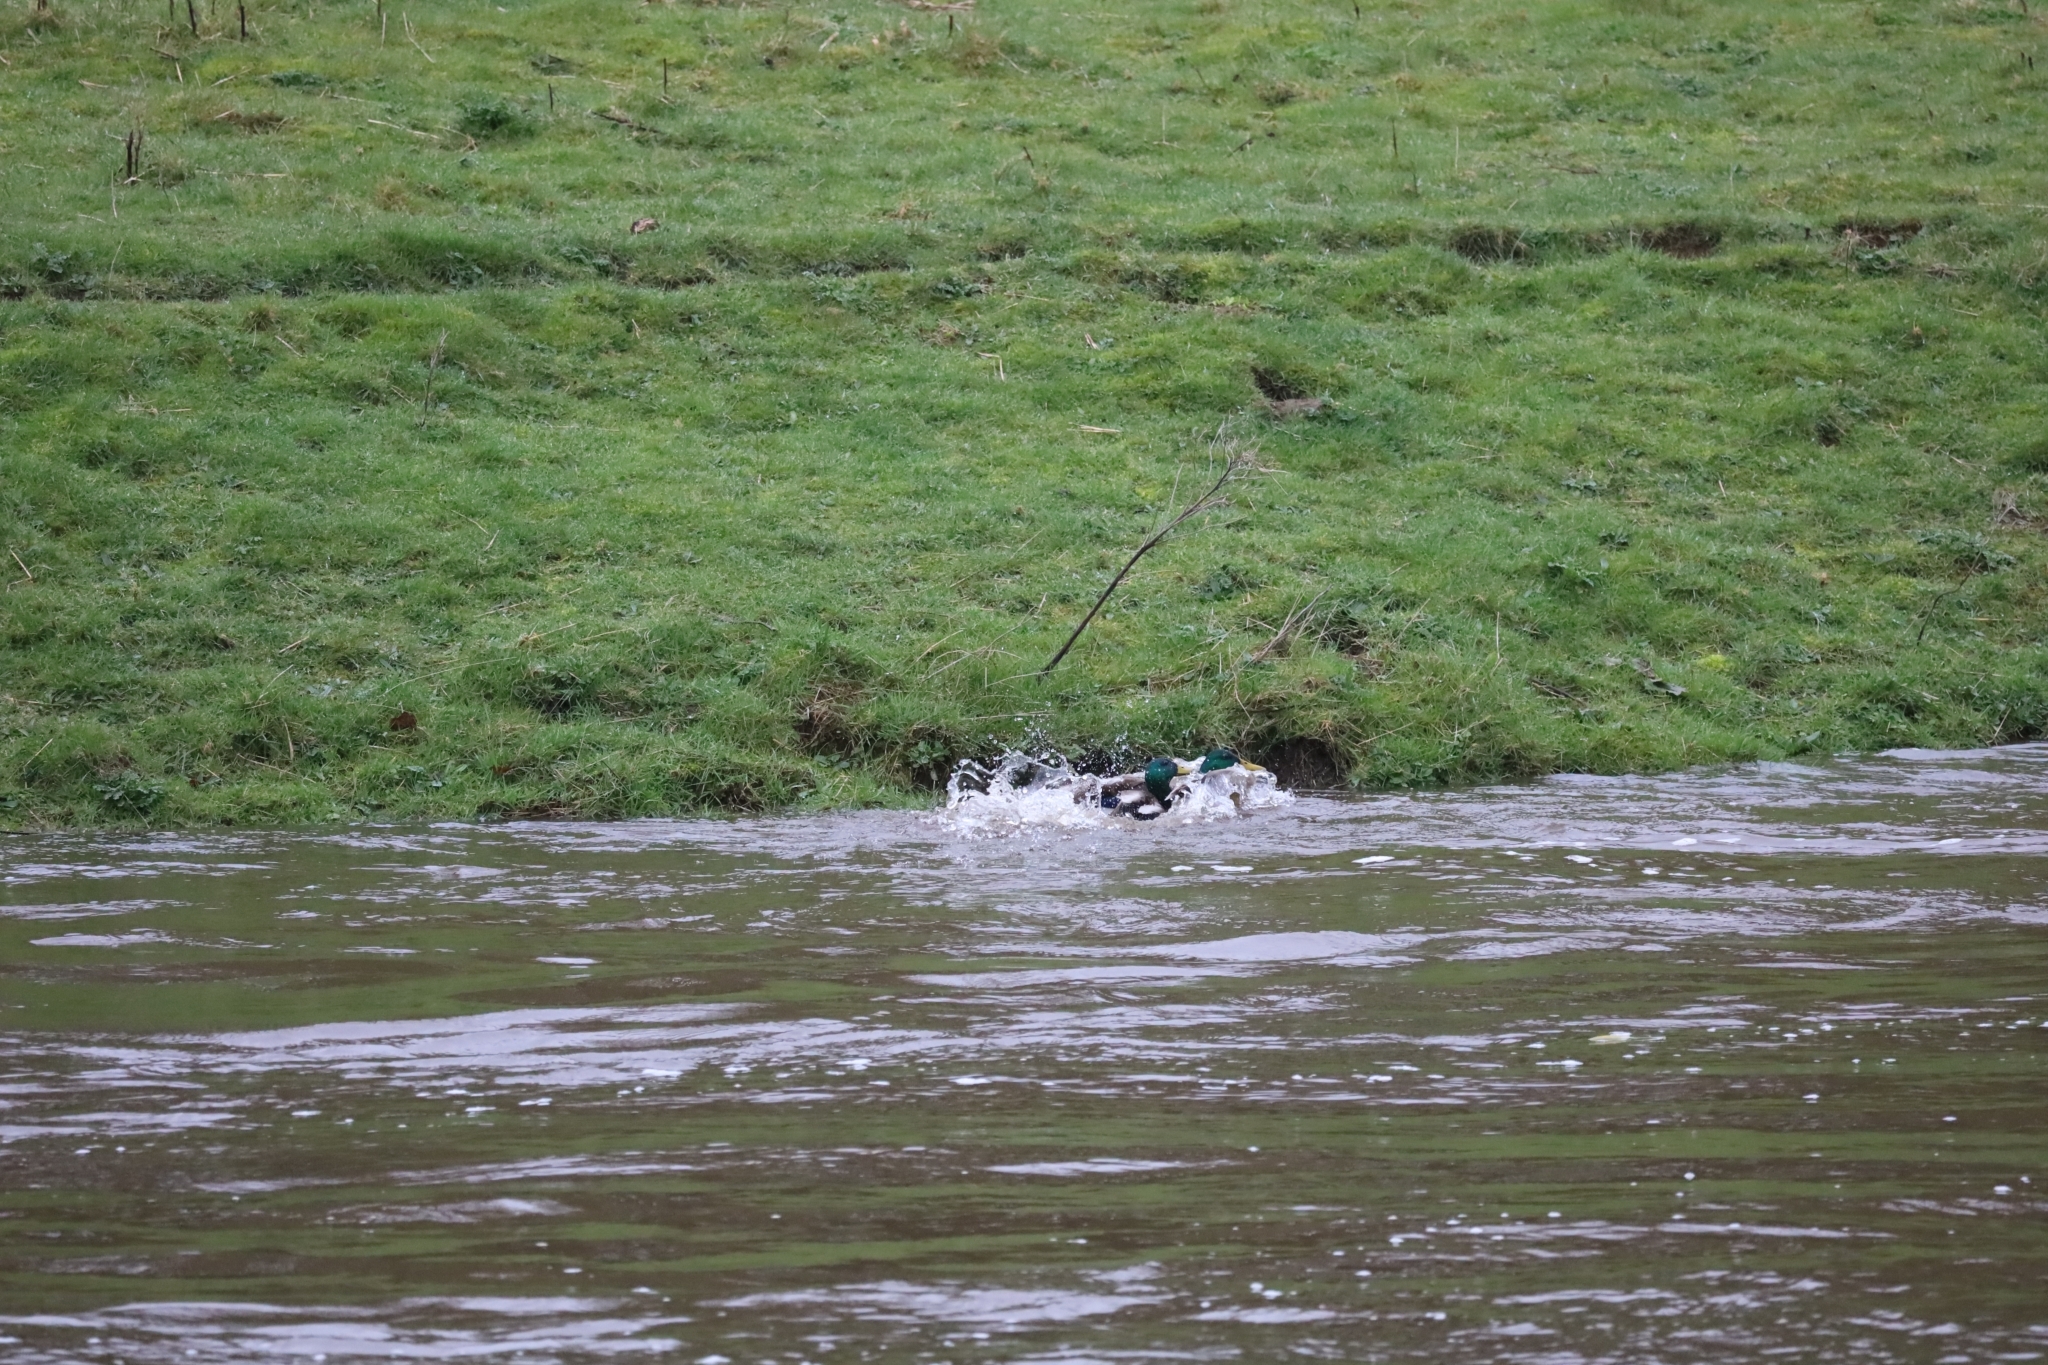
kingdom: Animalia
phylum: Chordata
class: Aves
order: Anseriformes
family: Anatidae
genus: Anas
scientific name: Anas platyrhynchos
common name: Mallard
